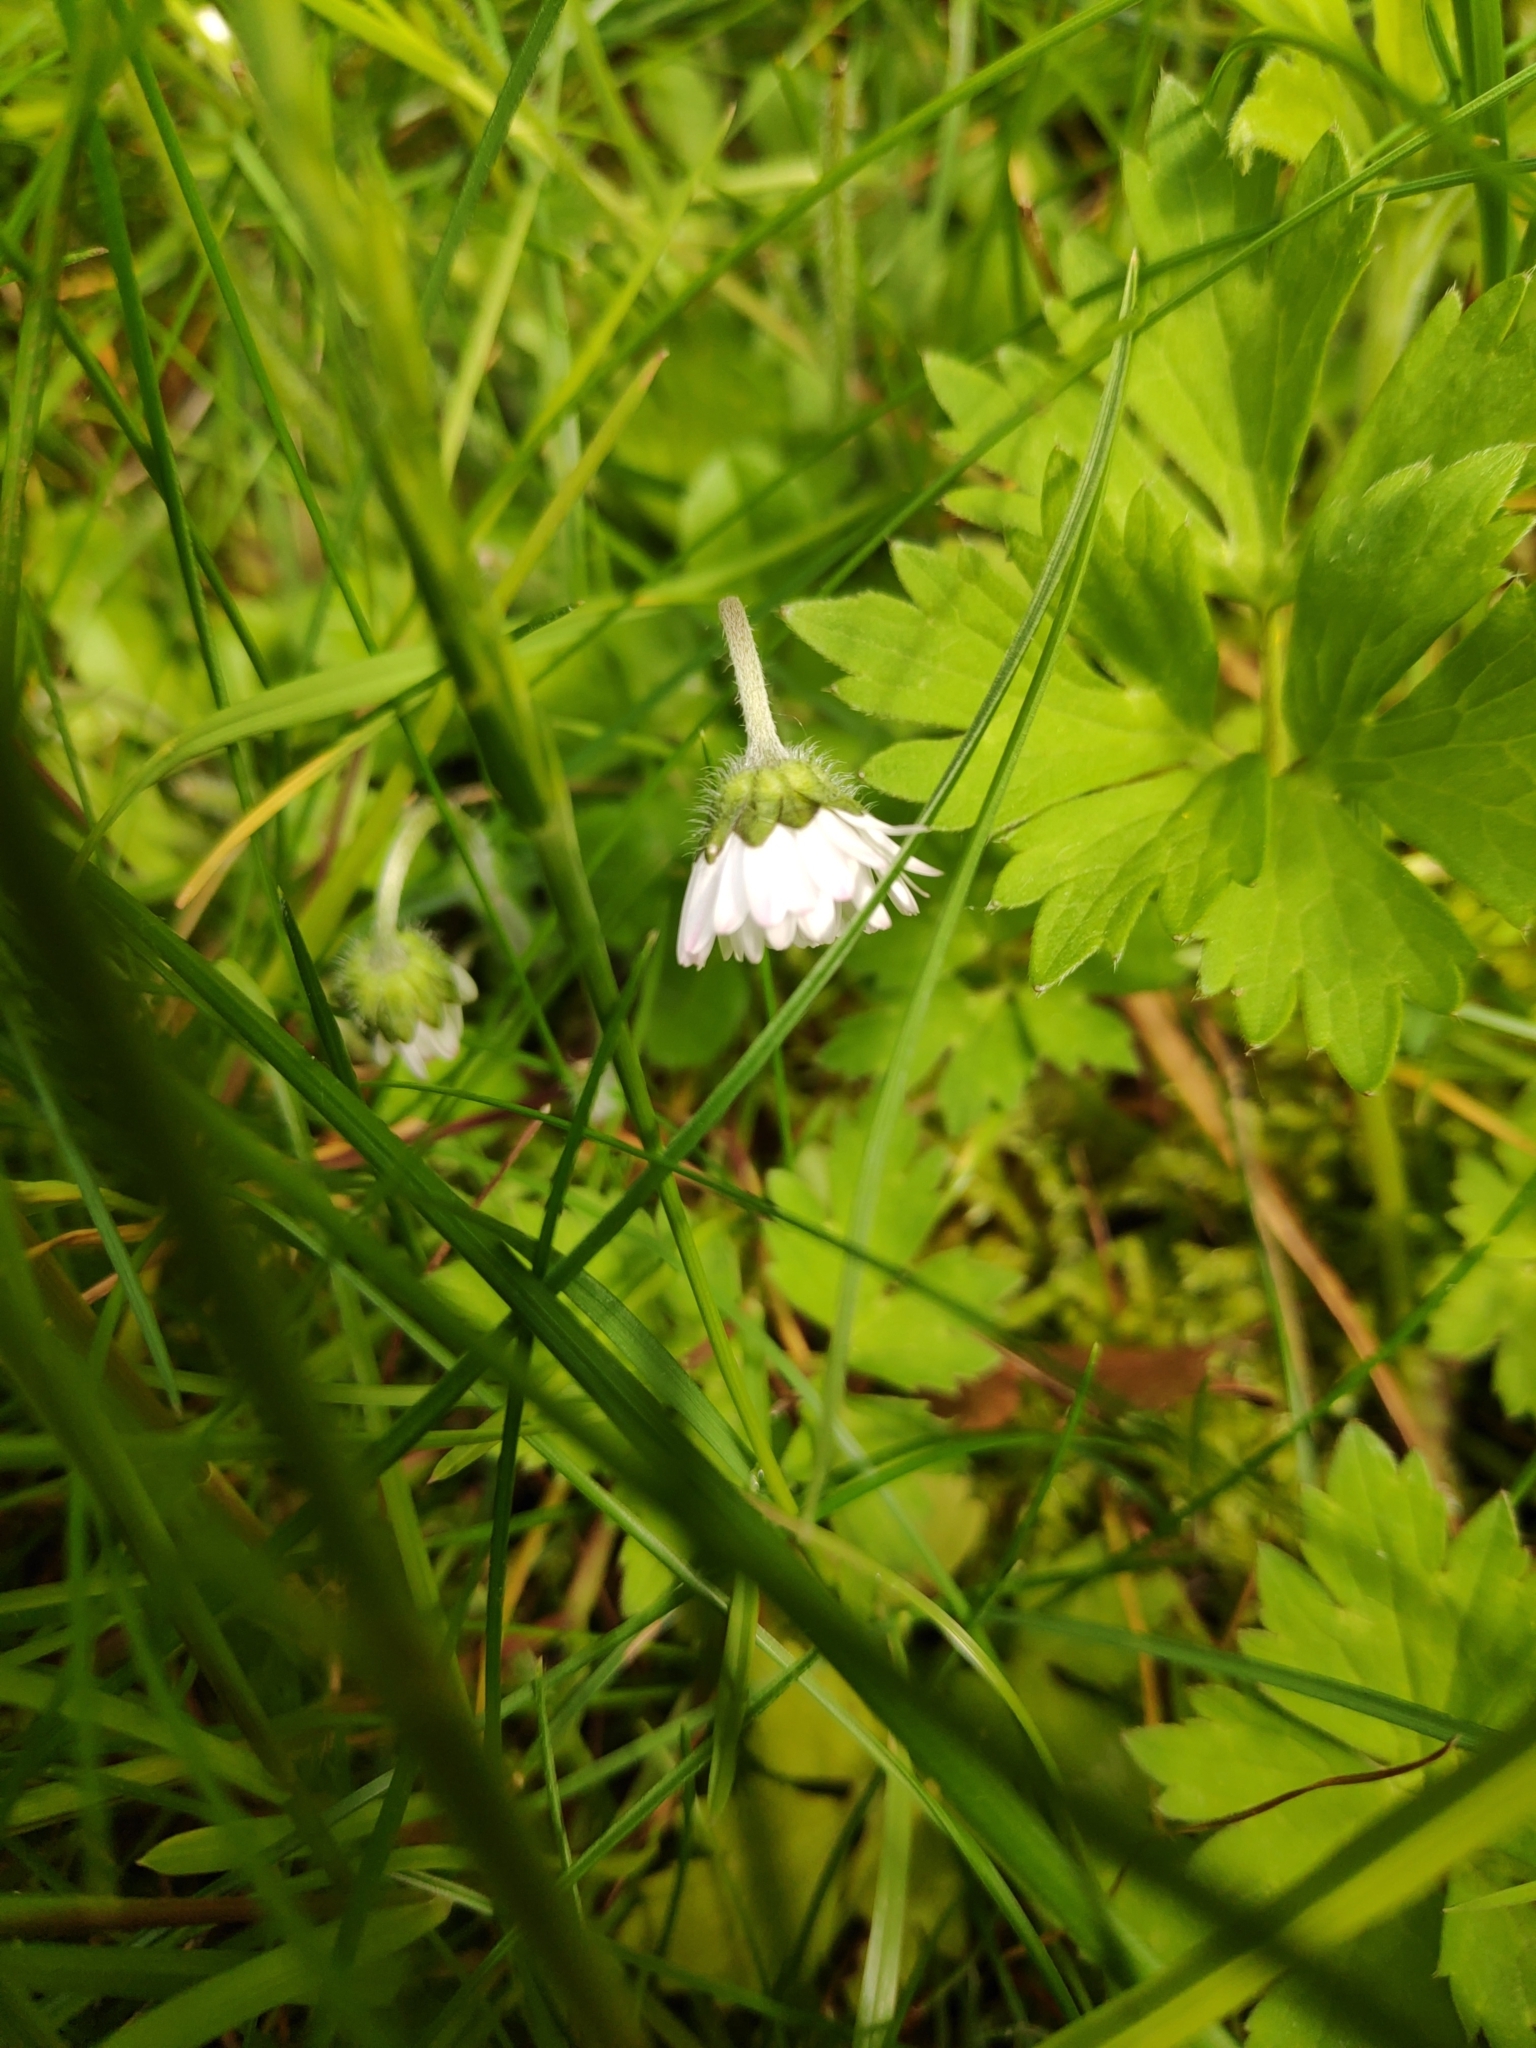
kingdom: Plantae
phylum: Tracheophyta
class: Magnoliopsida
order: Asterales
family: Asteraceae
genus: Bellis
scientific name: Bellis perennis
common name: Lawndaisy
